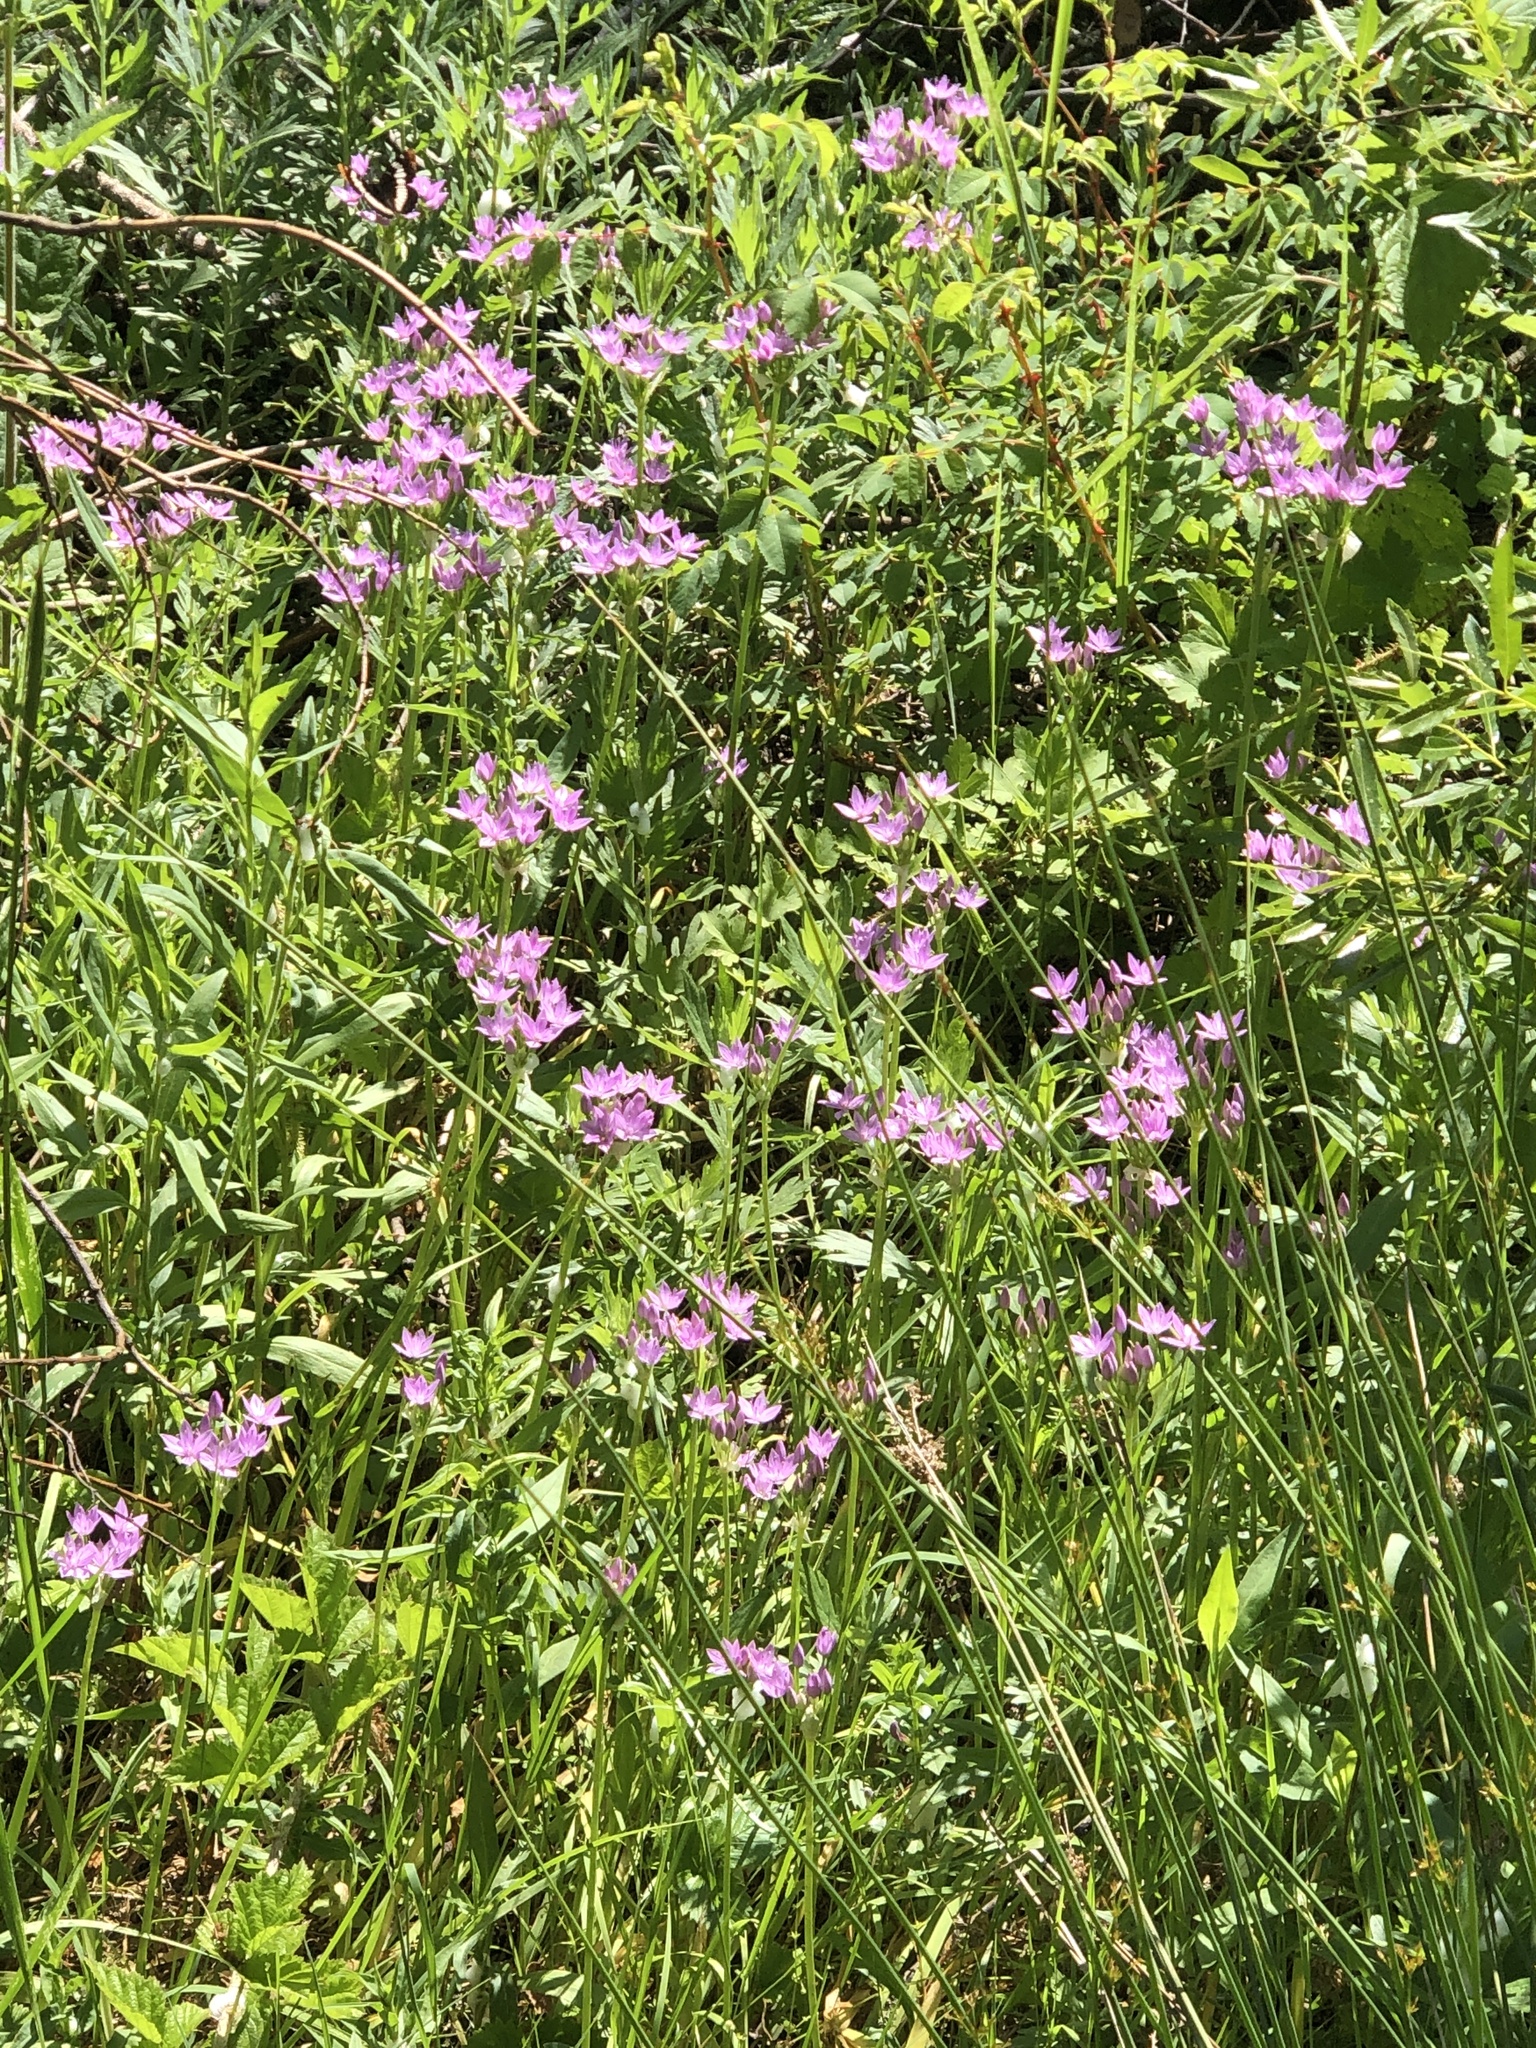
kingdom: Plantae
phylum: Tracheophyta
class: Liliopsida
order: Asparagales
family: Amaryllidaceae
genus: Allium
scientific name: Allium unifolium
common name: American garlic
